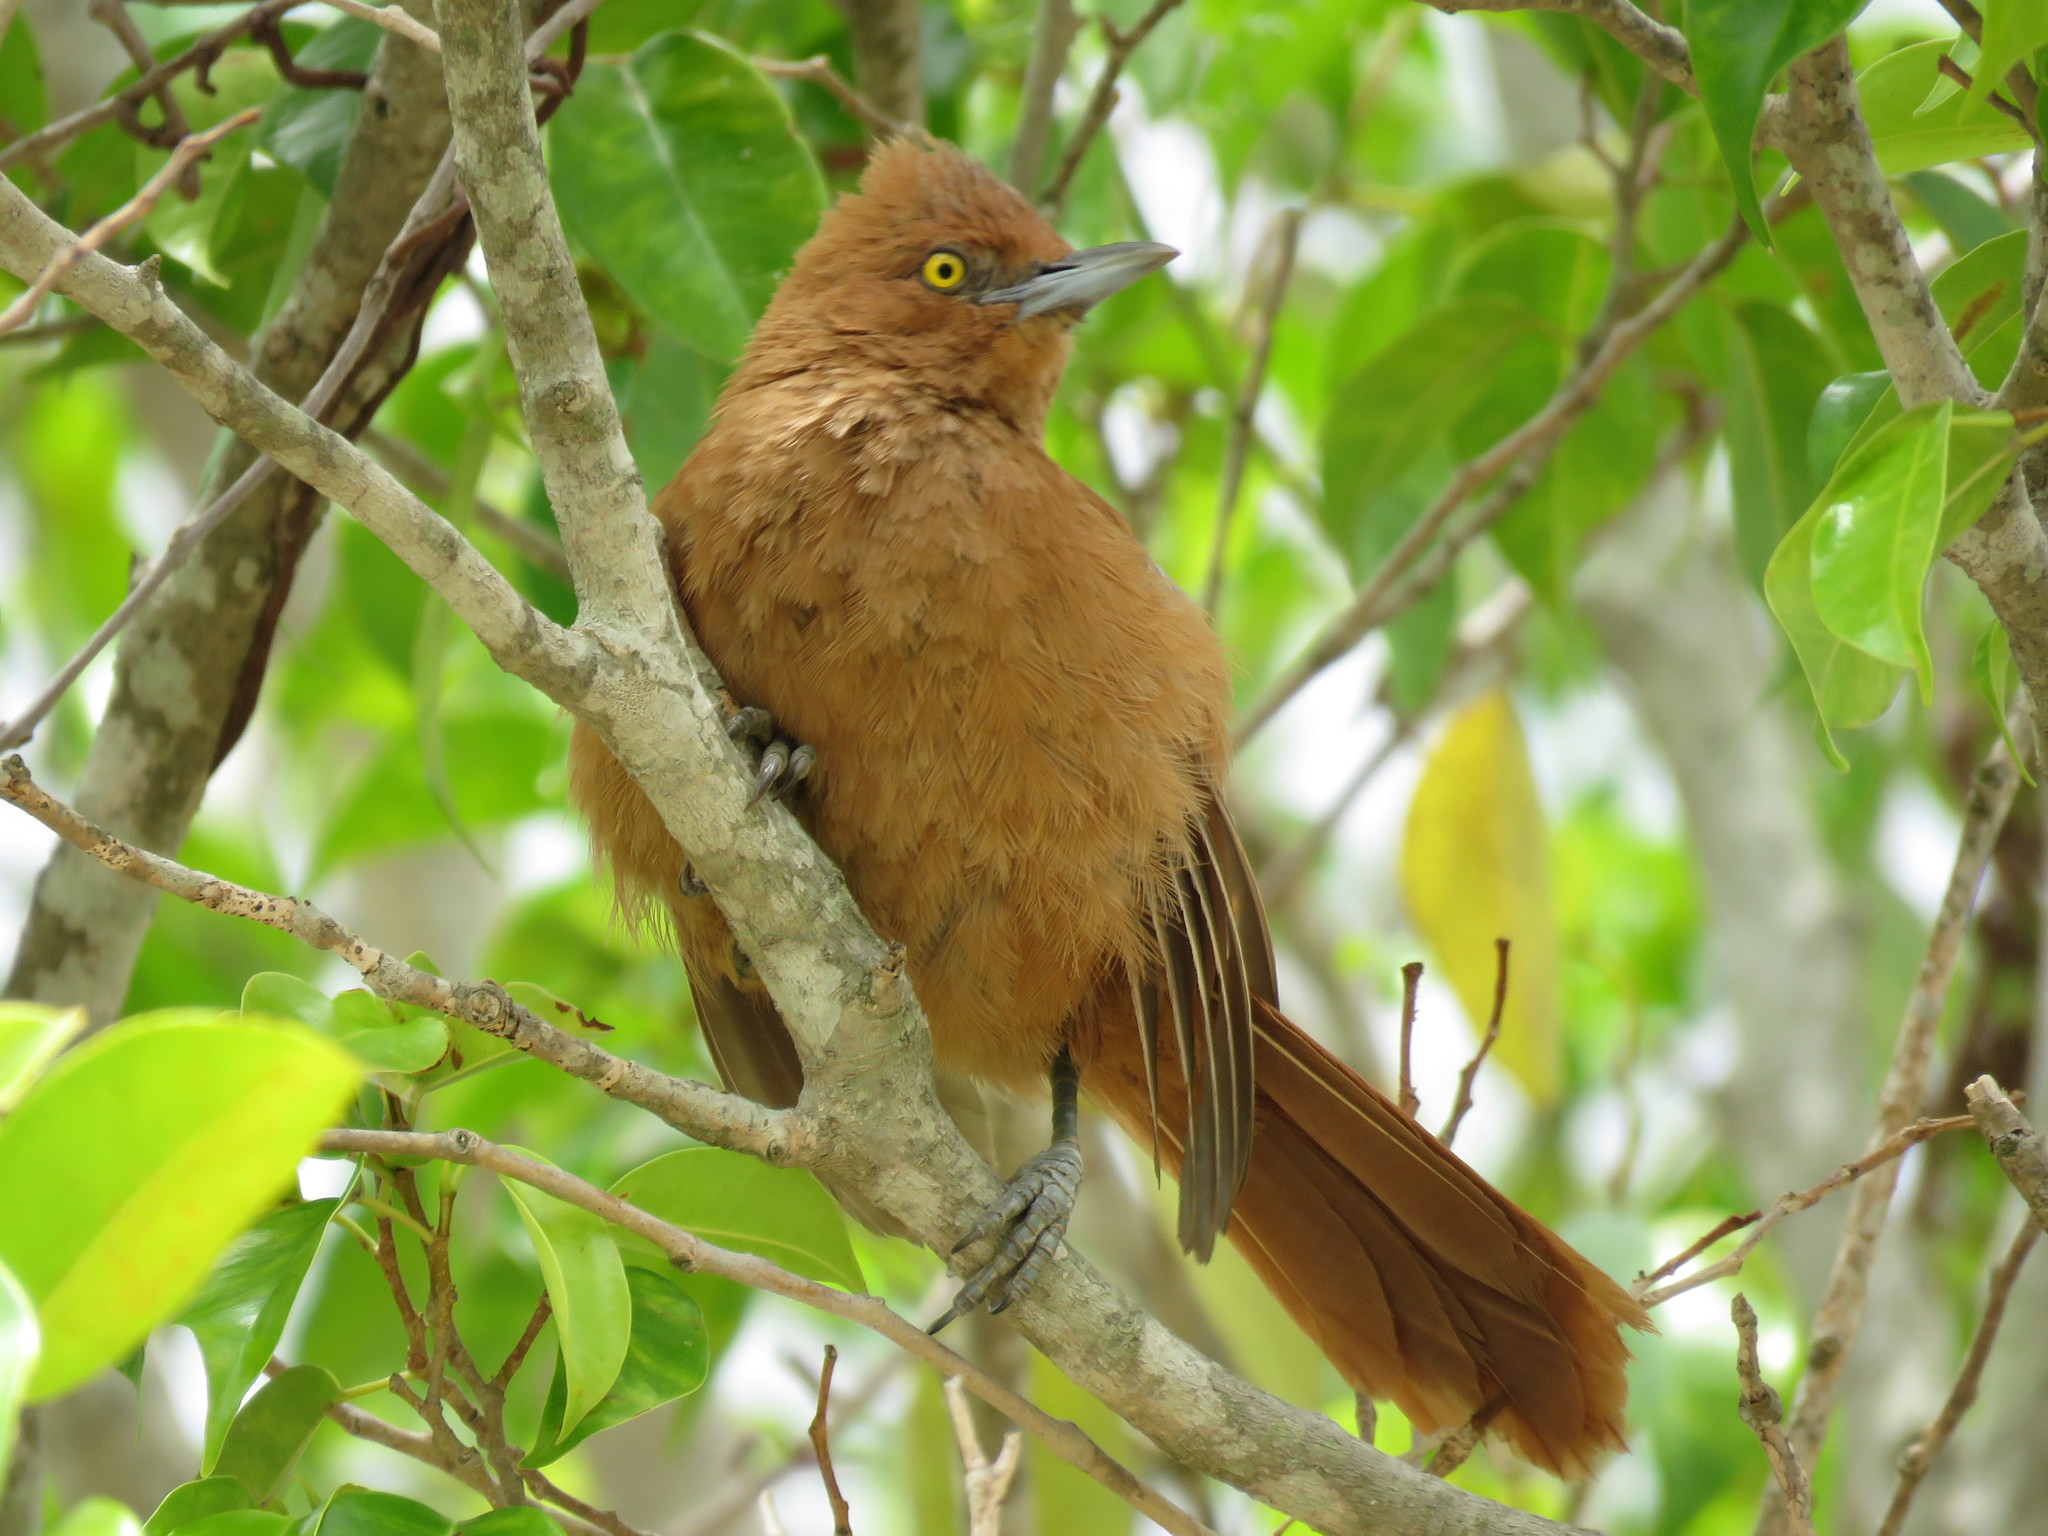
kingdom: Animalia
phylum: Chordata
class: Aves
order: Passeriformes
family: Furnariidae
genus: Pseudoseisura
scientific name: Pseudoseisura unirufa
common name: Grey-crested cacholote
